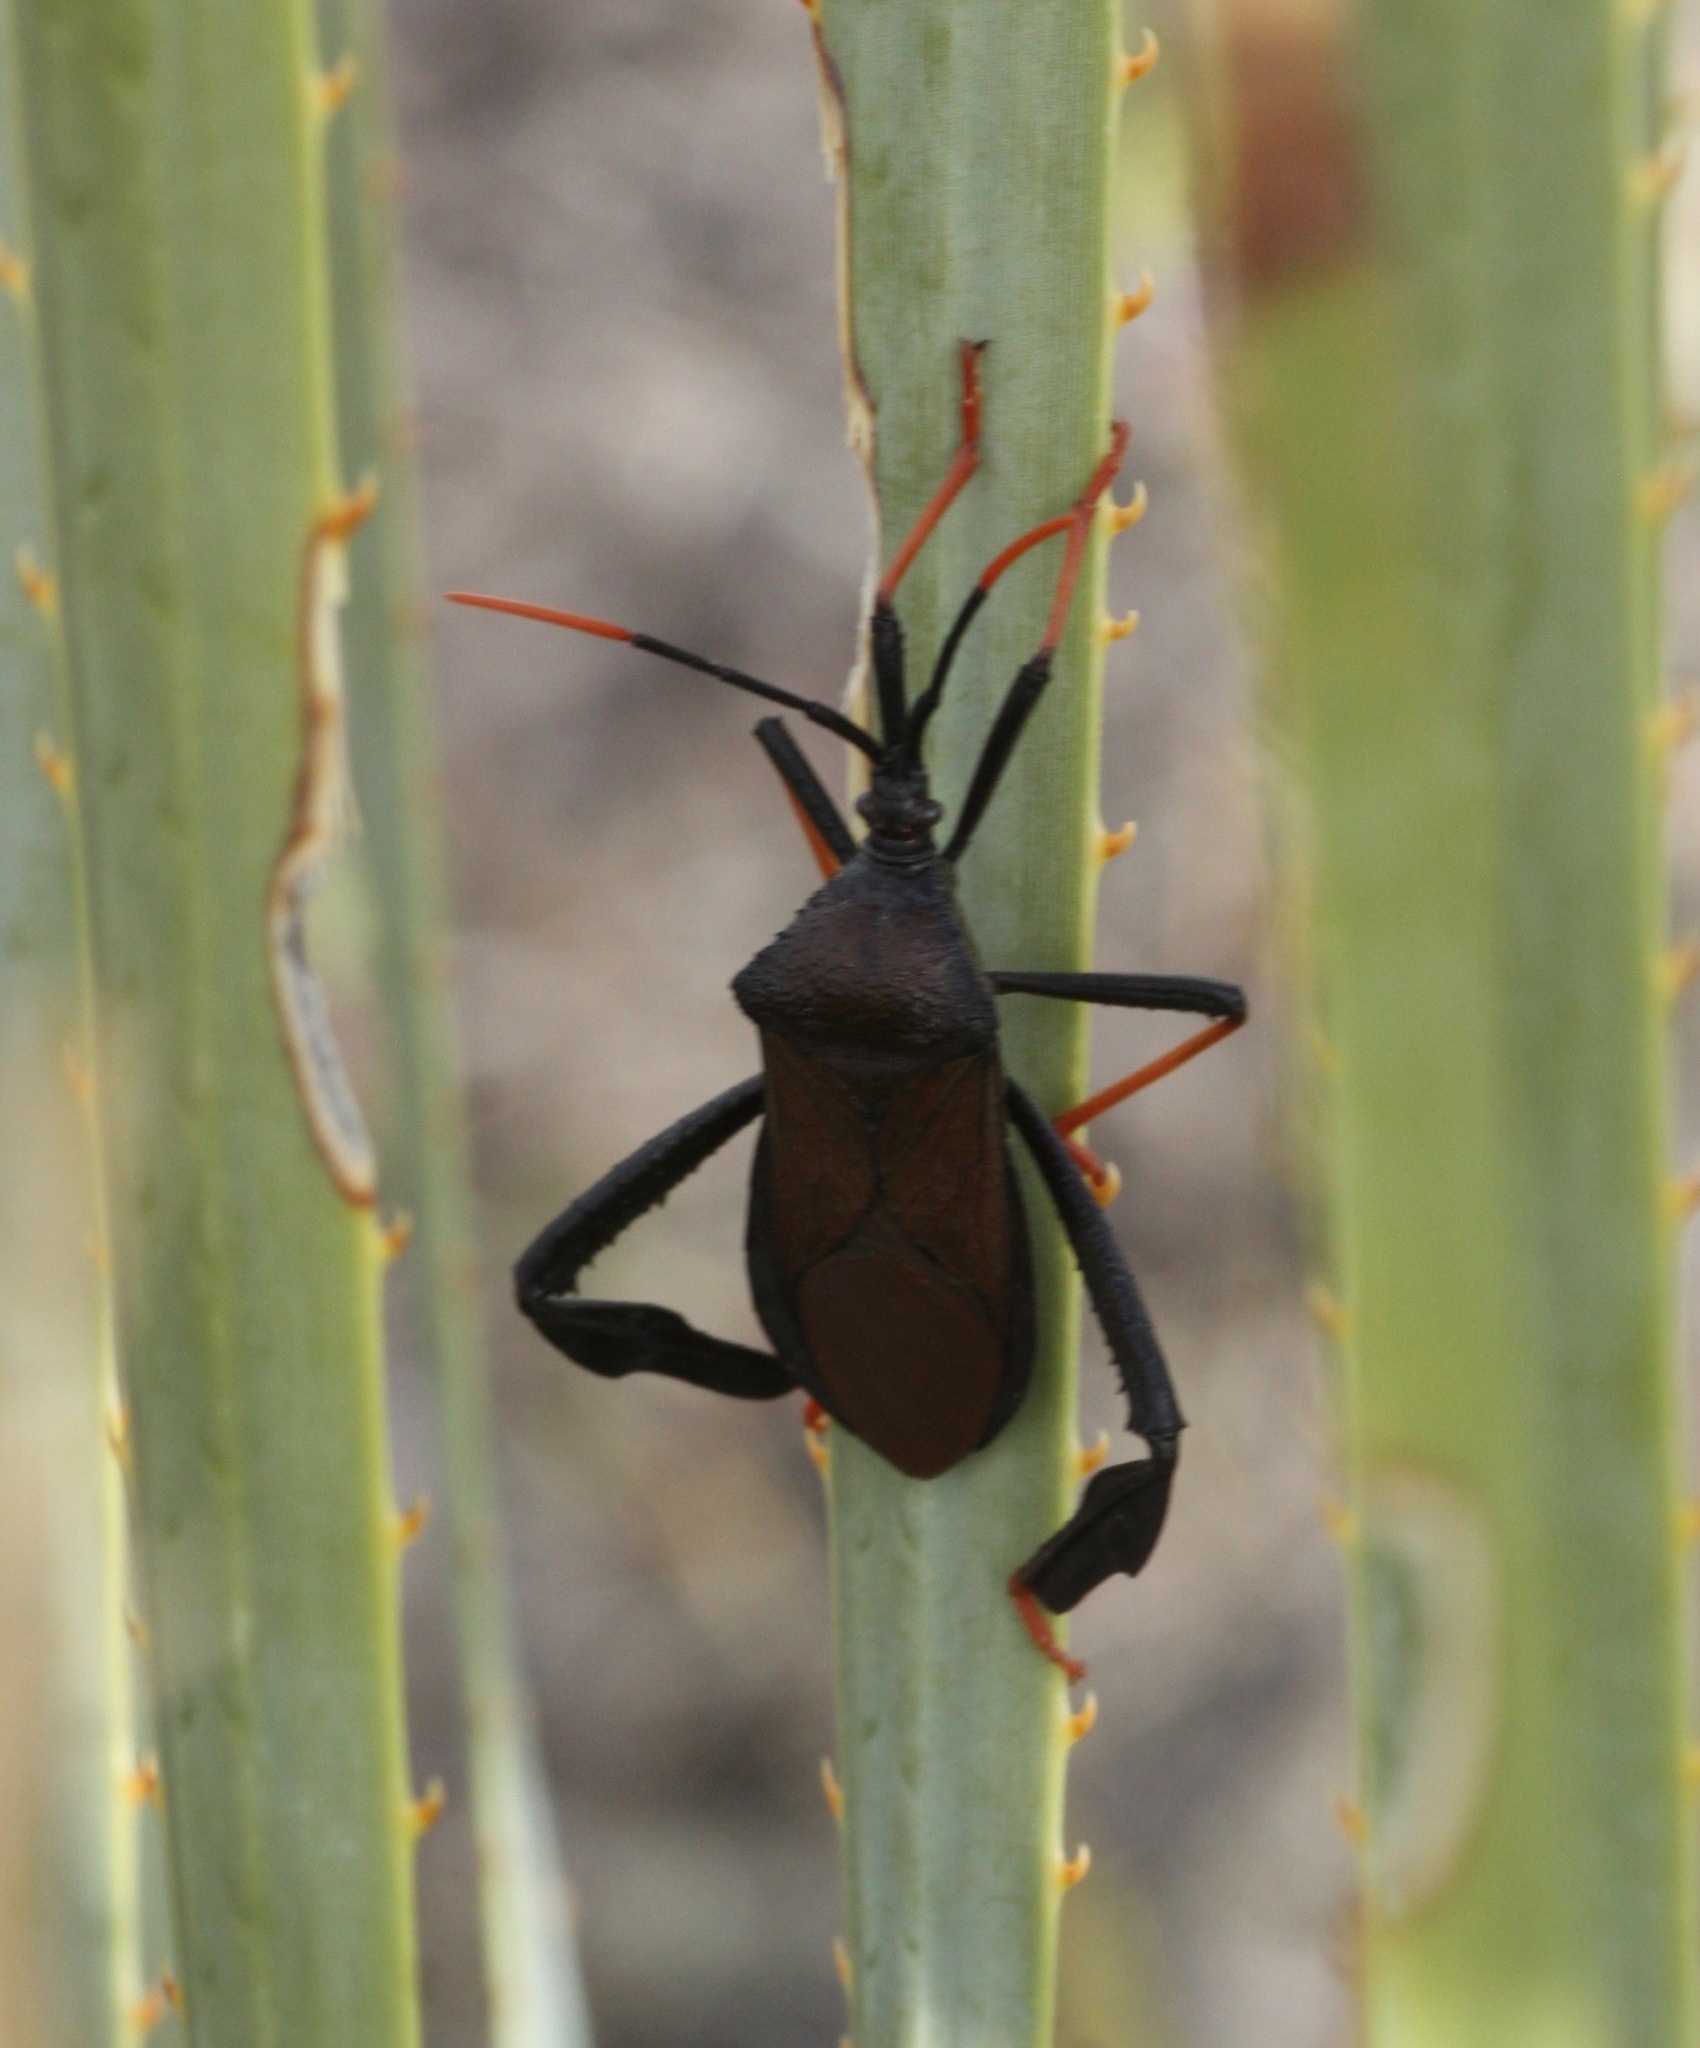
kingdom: Animalia
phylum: Arthropoda
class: Insecta
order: Hemiptera
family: Coreidae
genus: Acanthocephala
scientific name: Acanthocephala thomasi
